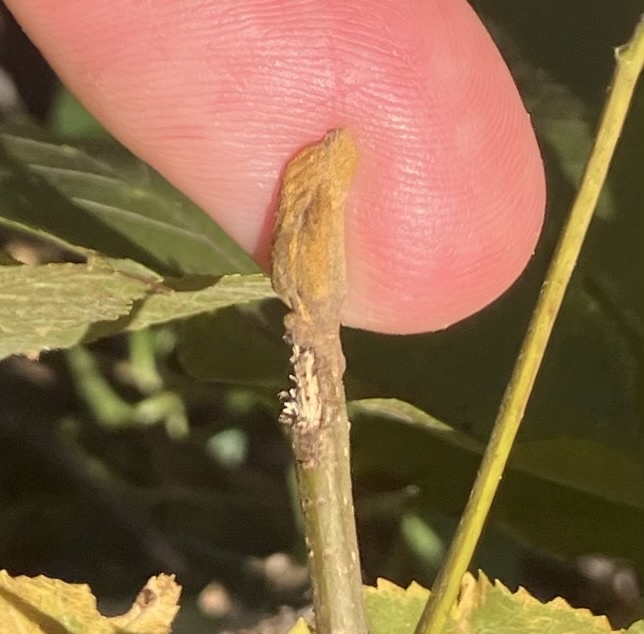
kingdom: Plantae
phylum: Tracheophyta
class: Magnoliopsida
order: Fagales
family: Juglandaceae
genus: Carya
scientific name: Carya cordiformis
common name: Bitternut hickory
